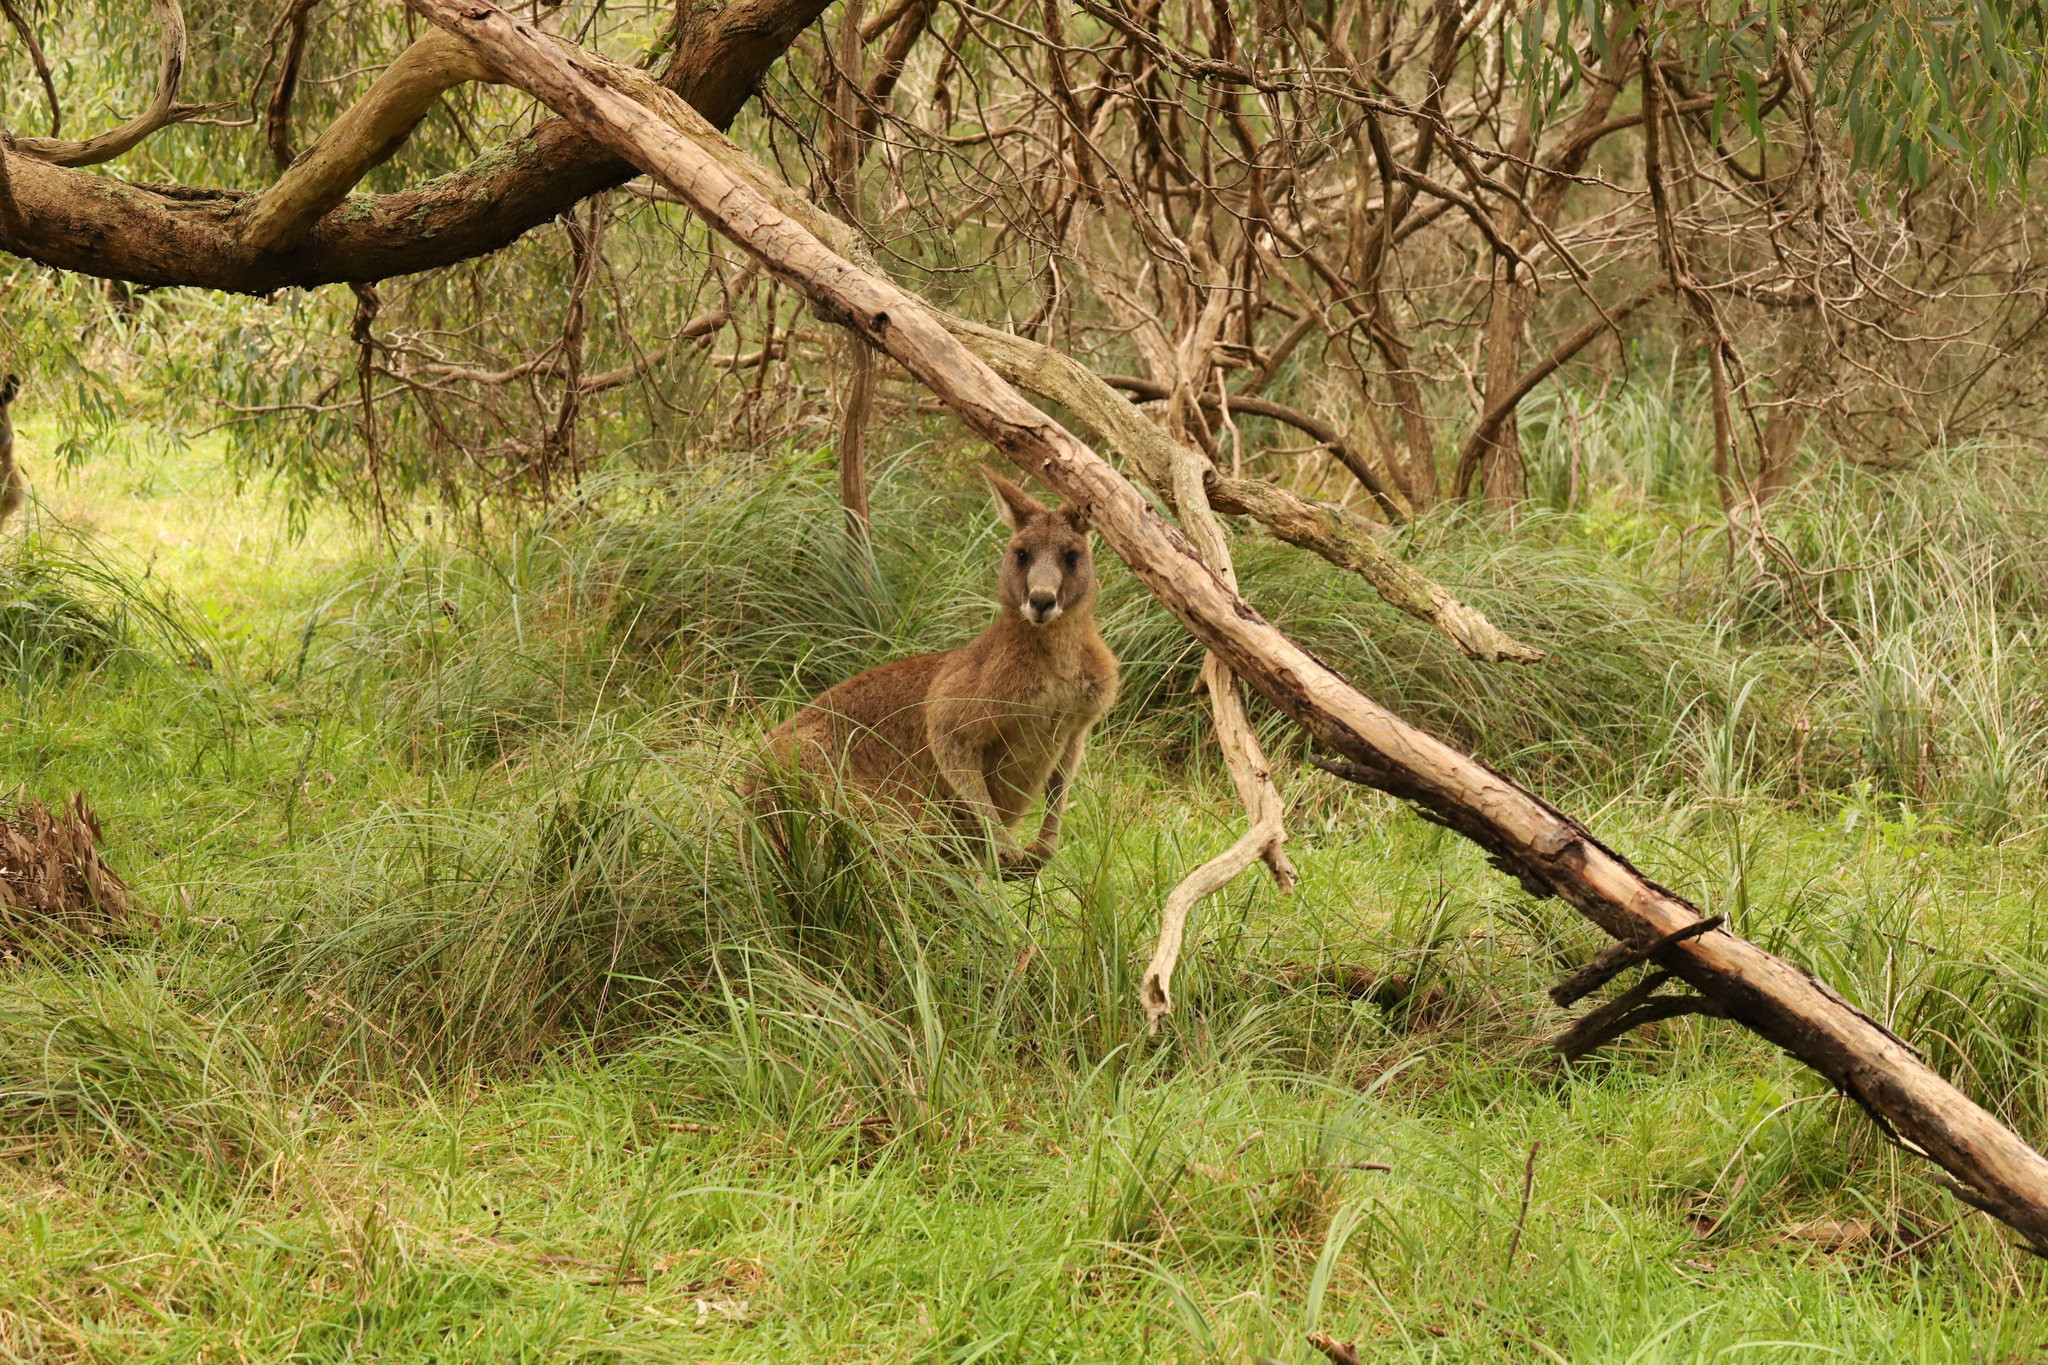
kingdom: Animalia
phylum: Chordata
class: Mammalia
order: Diprotodontia
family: Macropodidae
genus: Macropus
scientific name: Macropus giganteus
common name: Eastern grey kangaroo
